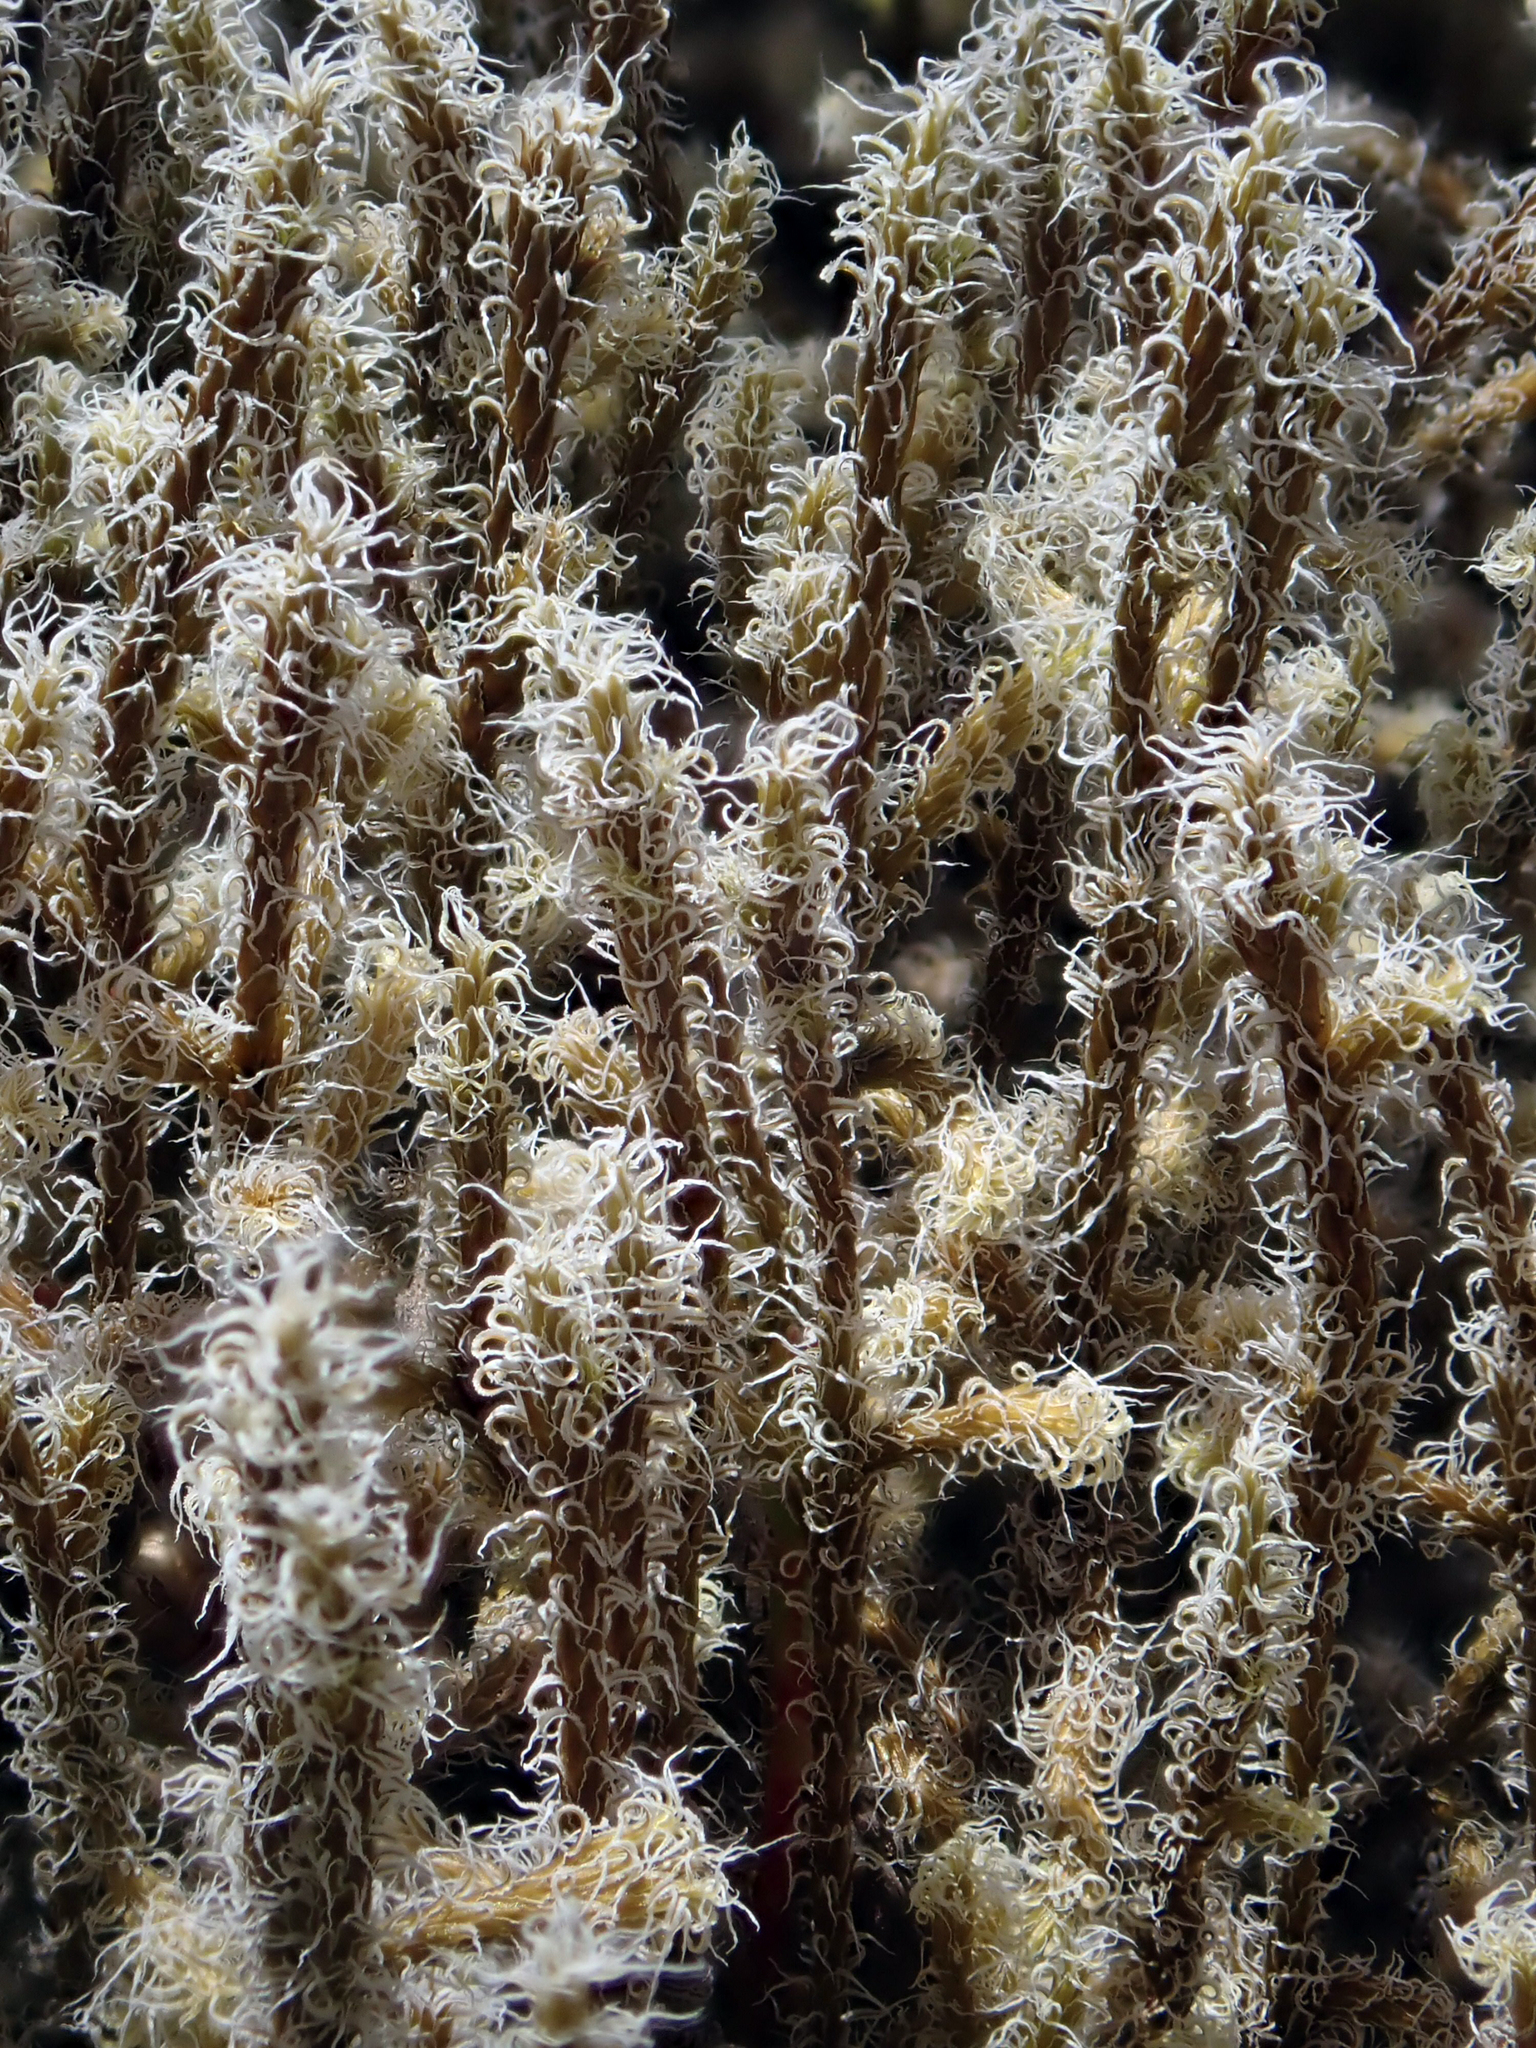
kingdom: Plantae
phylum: Bryophyta
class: Bryopsida
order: Grimmiales
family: Grimmiaceae
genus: Racomitrium
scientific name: Racomitrium lanuginosum
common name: Hoary rock moss
